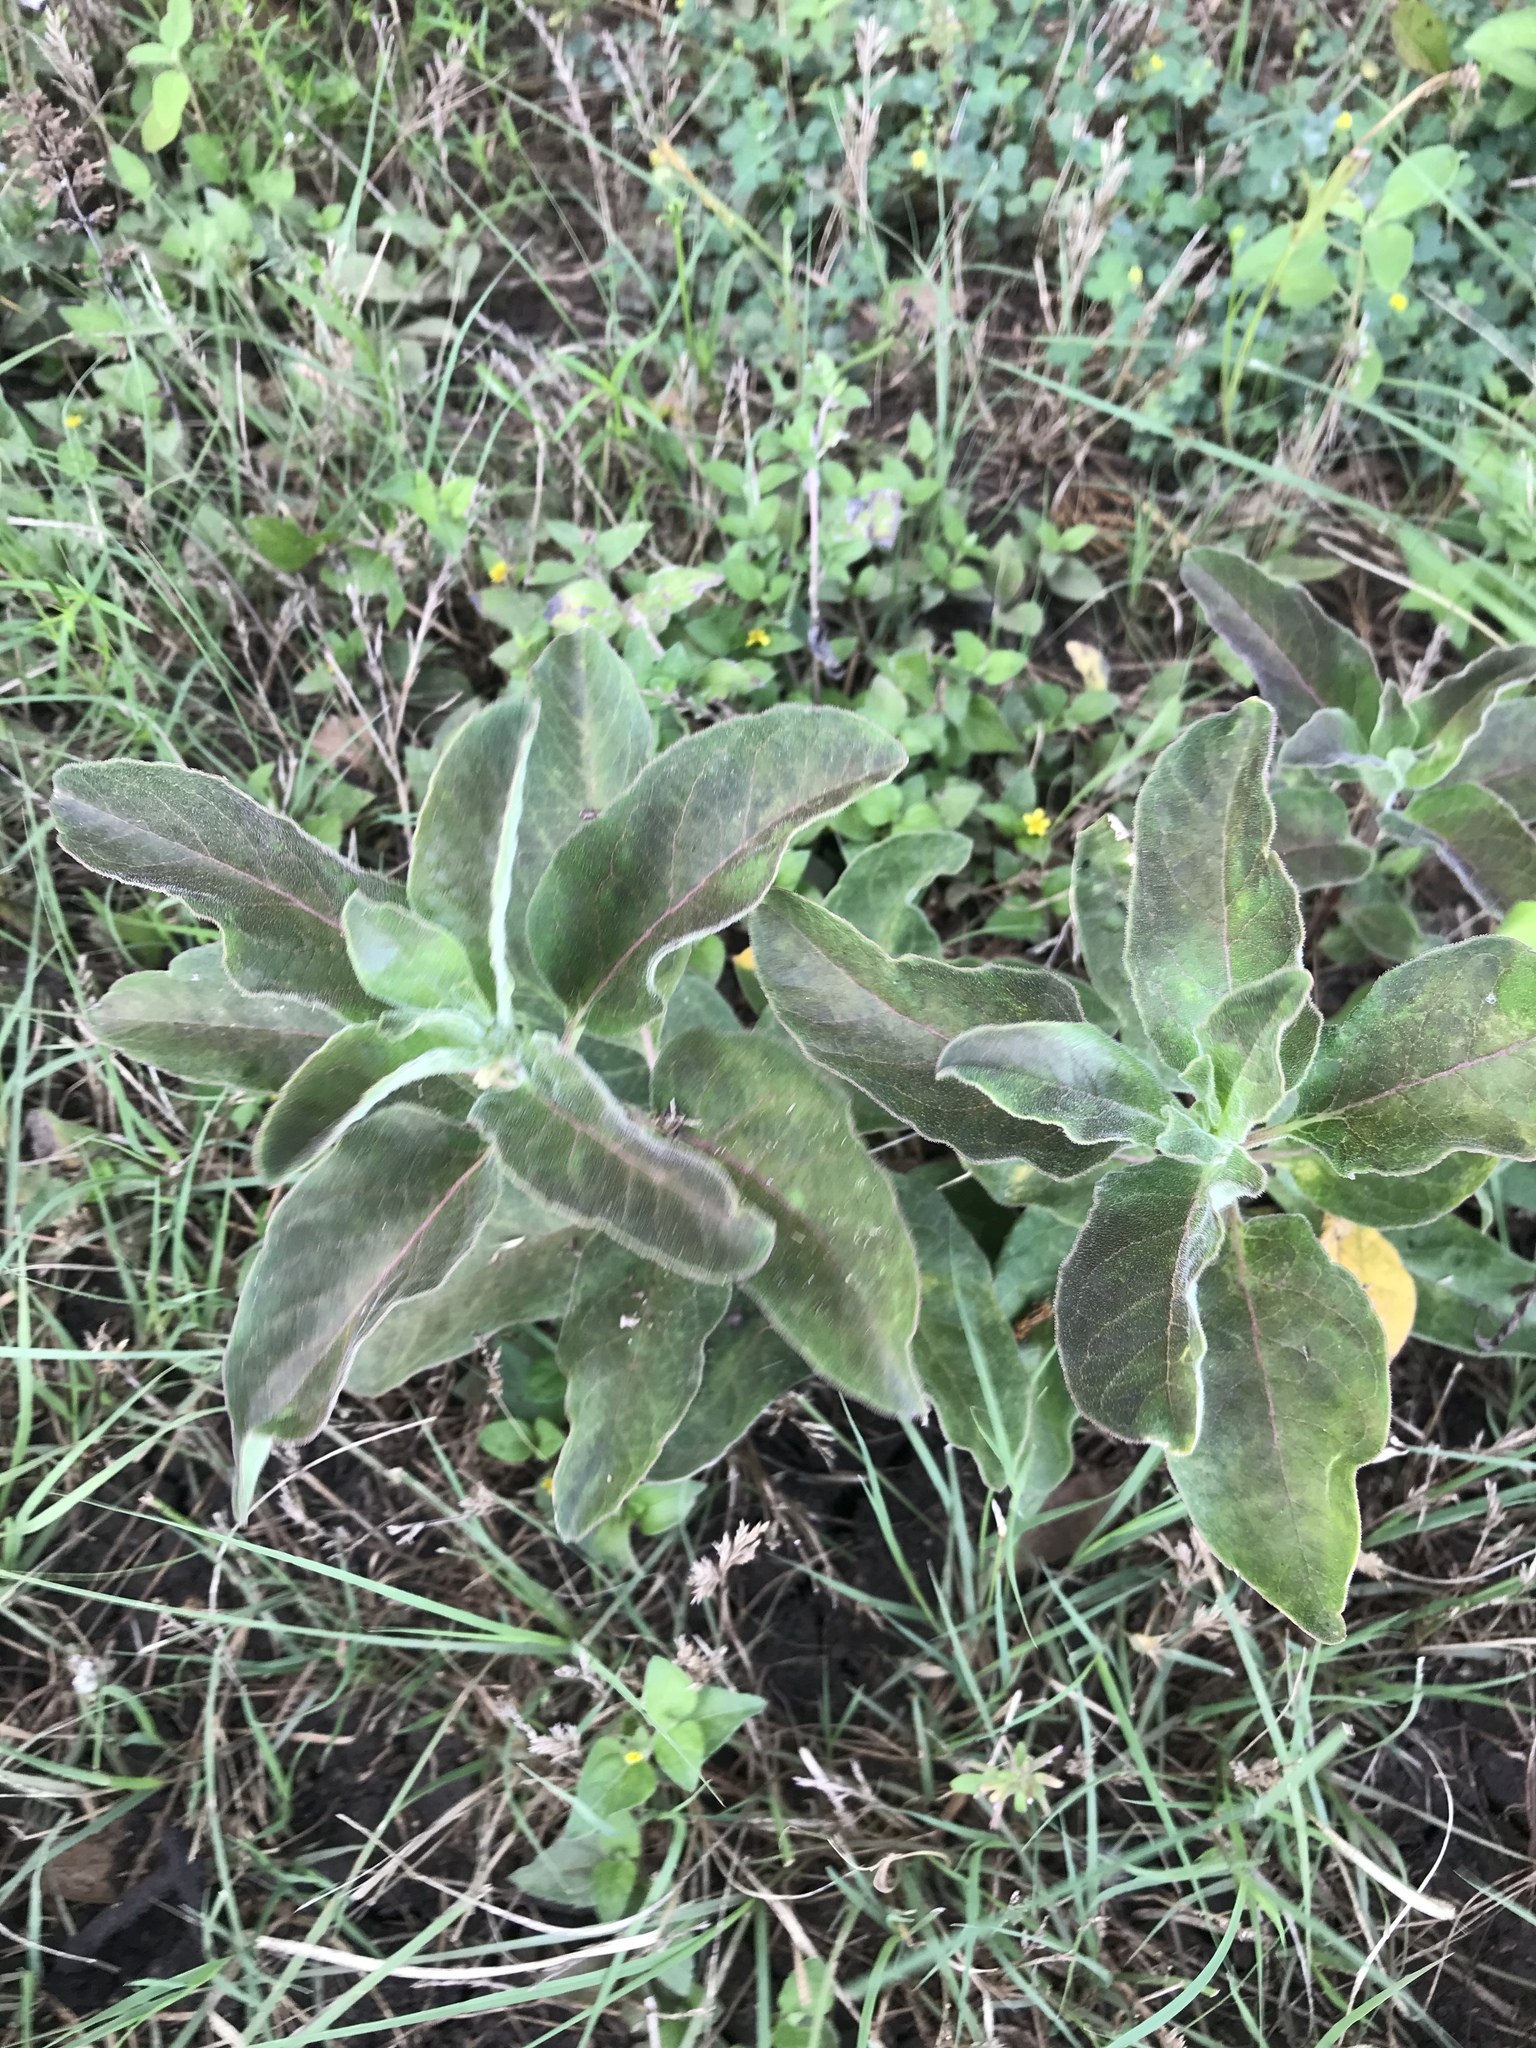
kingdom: Plantae
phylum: Tracheophyta
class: Magnoliopsida
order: Gentianales
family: Apocynaceae
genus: Asclepias
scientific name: Asclepias oenotheroides
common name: Zizotes milkweed
